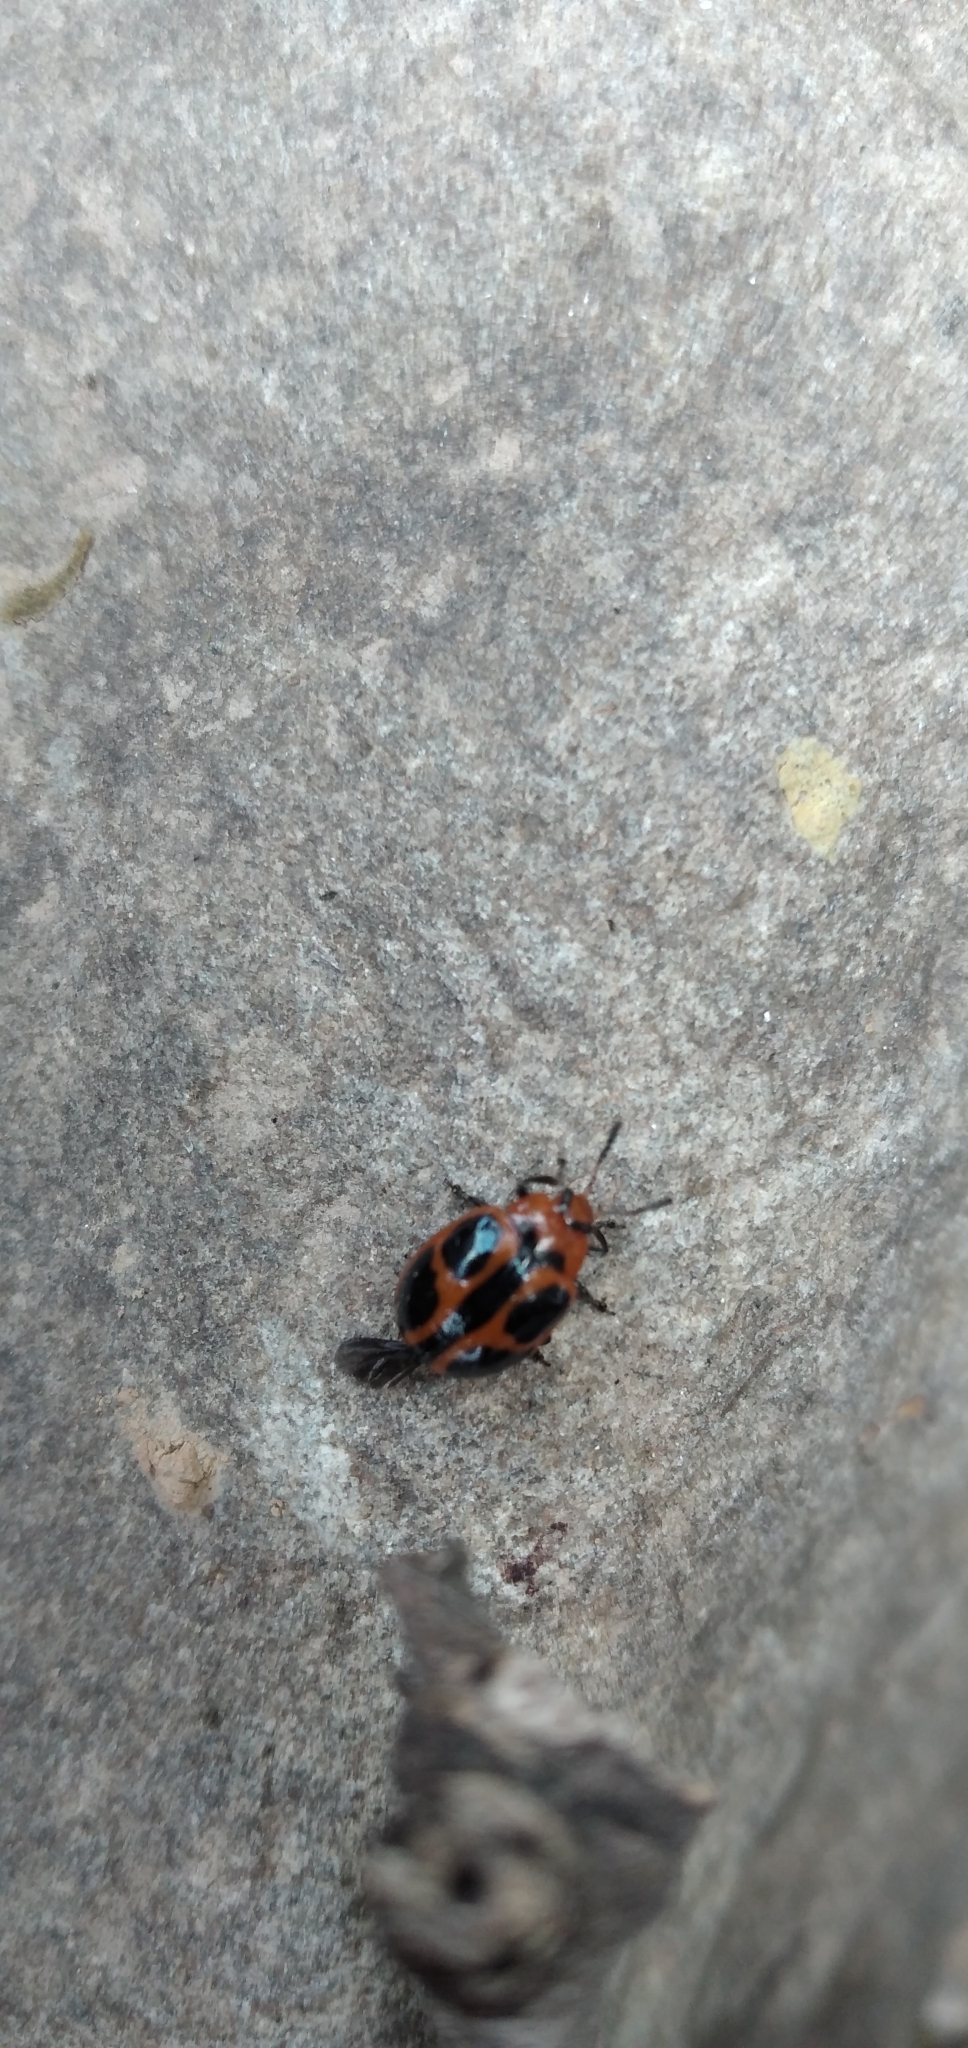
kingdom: Animalia
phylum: Arthropoda
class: Insecta
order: Coleoptera
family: Chrysomelidae
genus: Plagiodera
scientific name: Plagiodera
